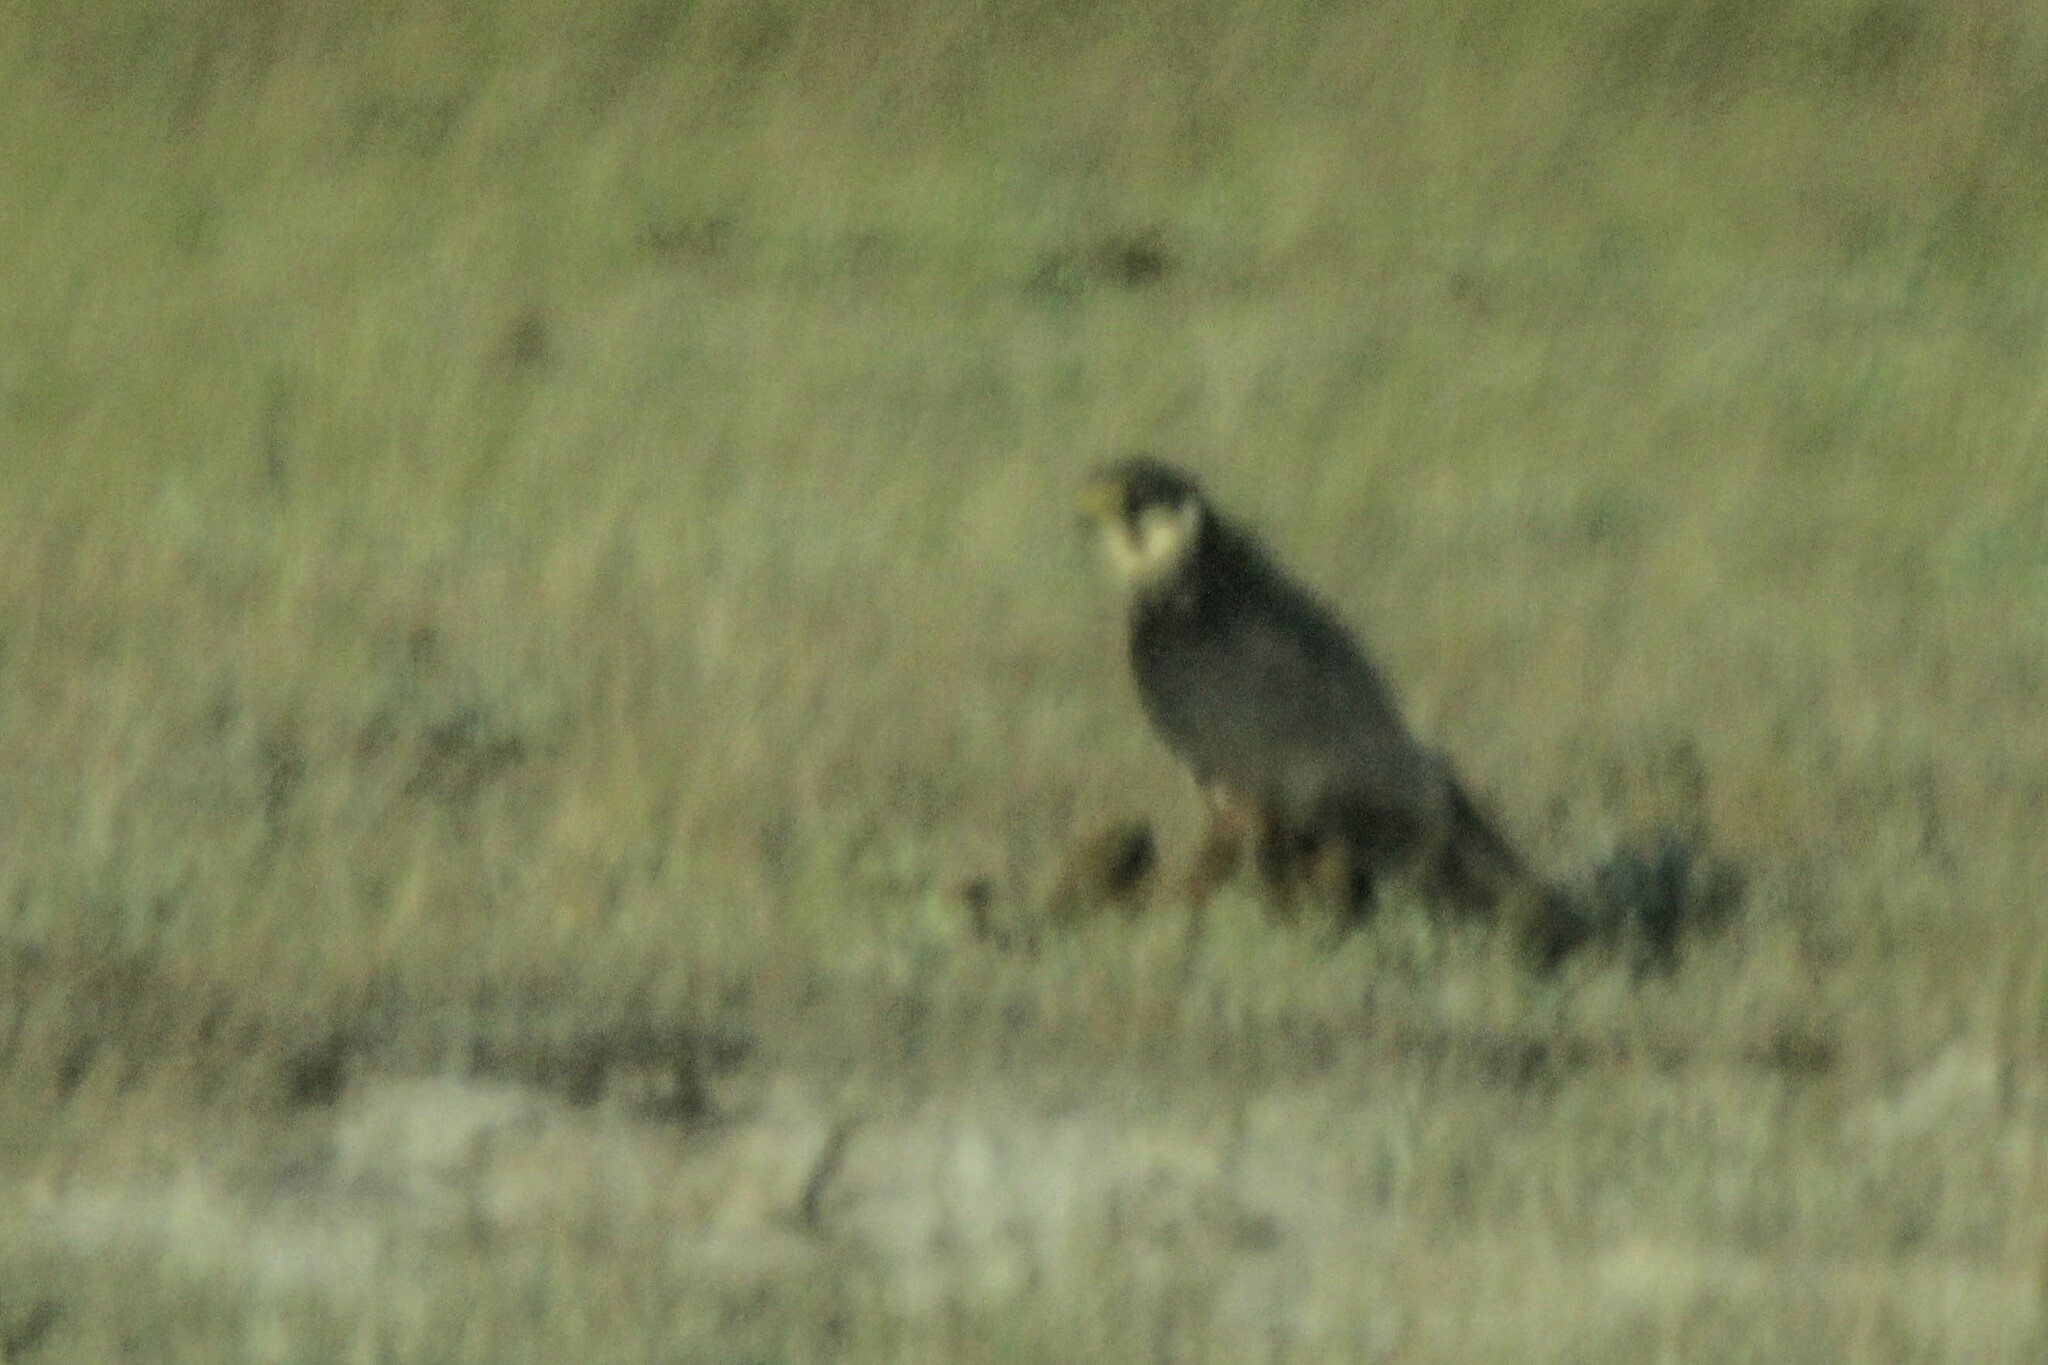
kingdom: Animalia
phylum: Chordata
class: Aves
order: Falconiformes
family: Falconidae
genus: Falco
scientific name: Falco subbuteo
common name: Eurasian hobby
